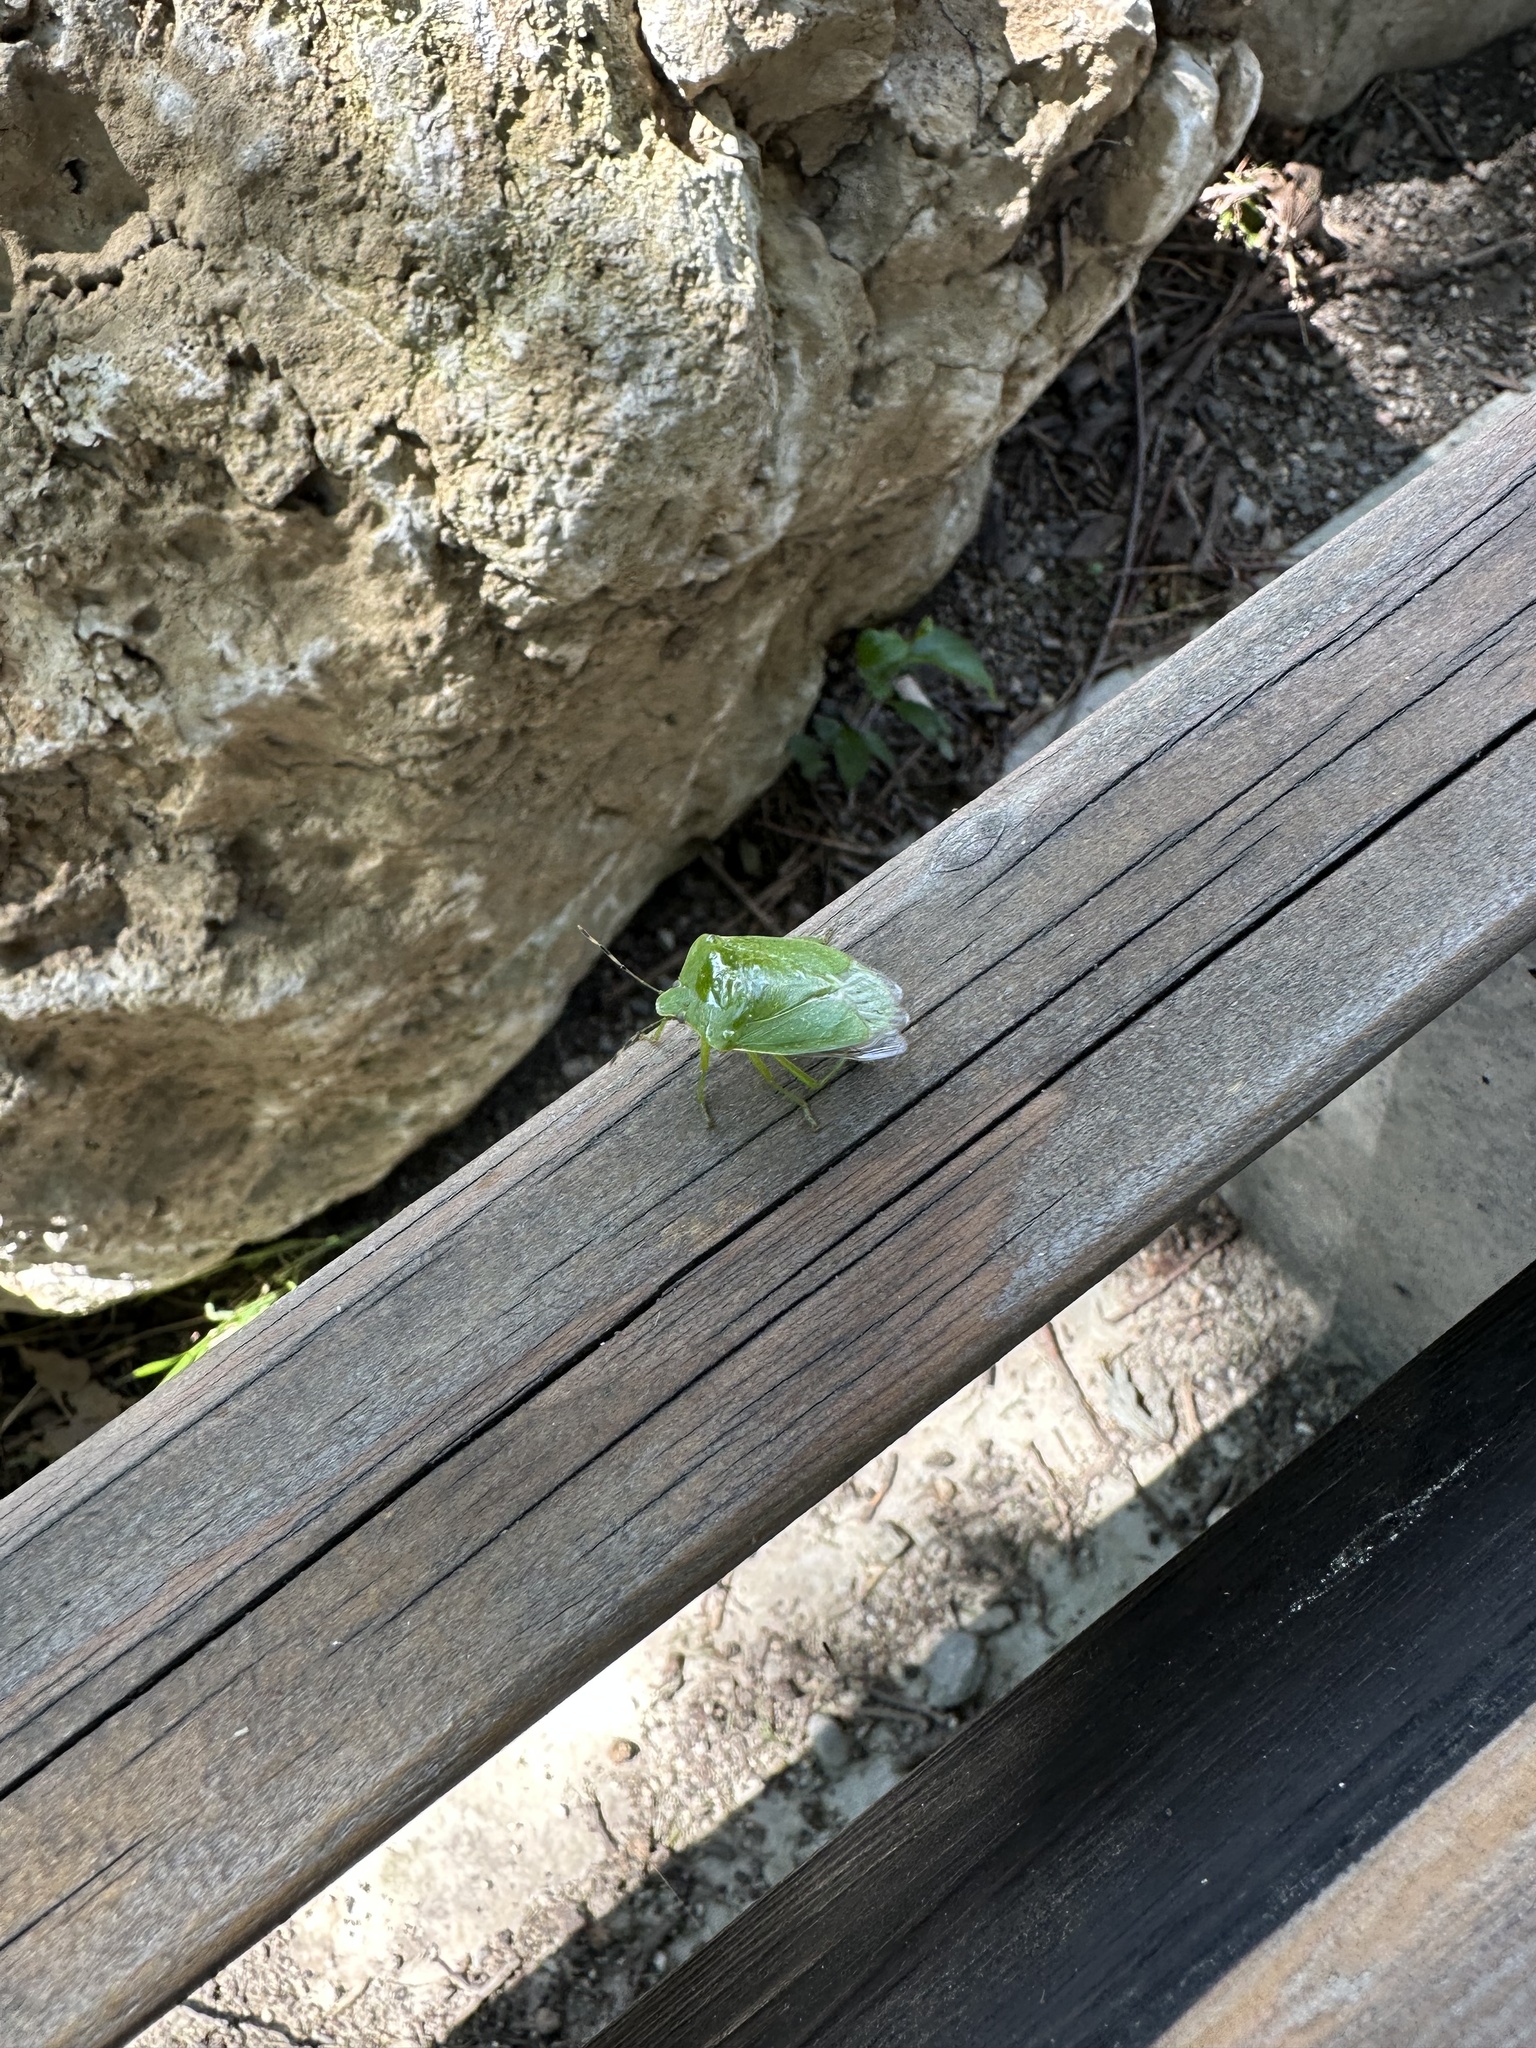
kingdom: Animalia
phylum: Arthropoda
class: Insecta
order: Hemiptera
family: Pentatomidae
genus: Chinavia
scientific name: Chinavia hilaris
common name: Green stink bug
